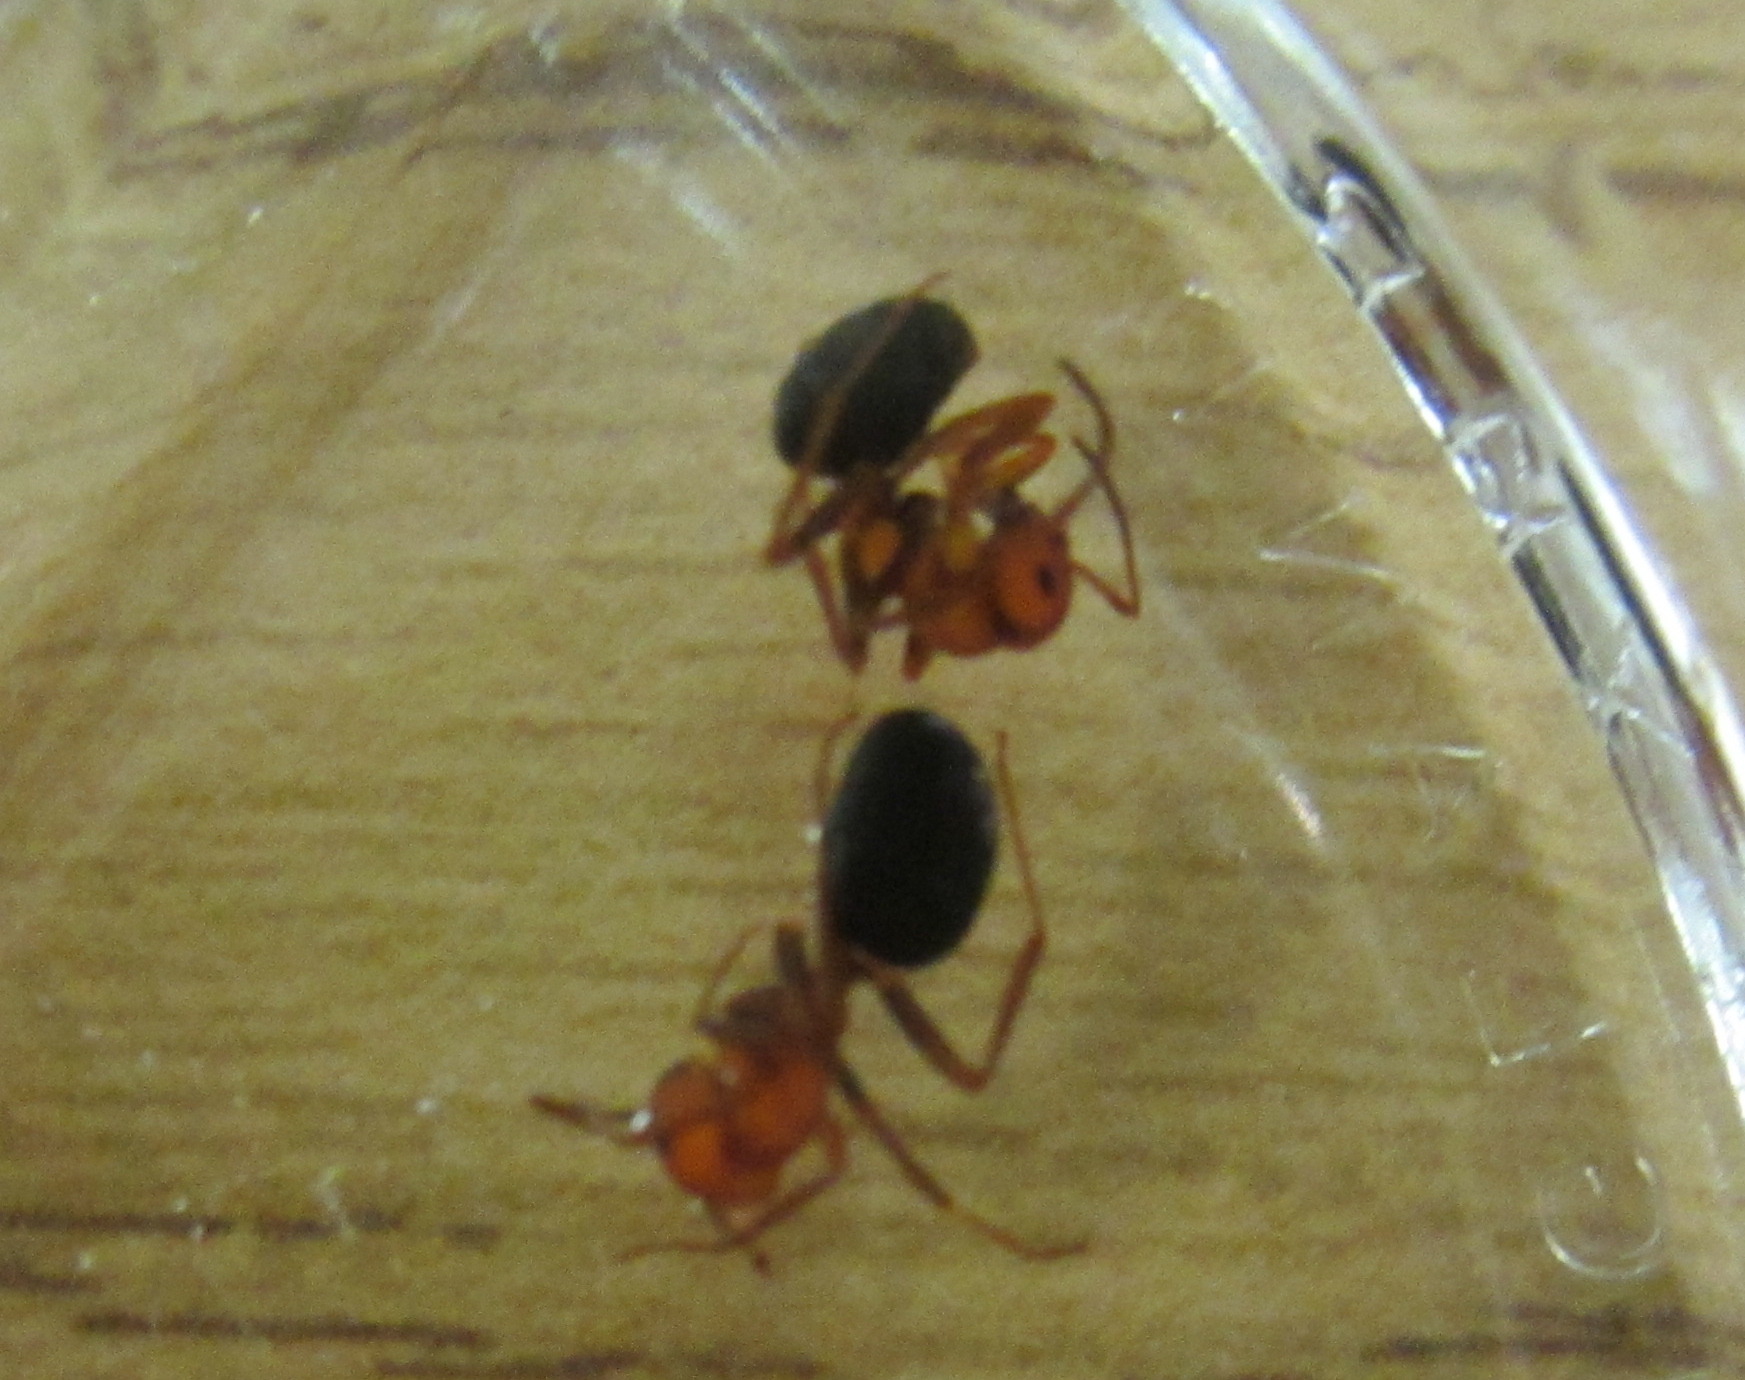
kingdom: Animalia
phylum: Arthropoda
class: Insecta
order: Hymenoptera
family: Formicidae
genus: Formica
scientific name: Formica moki
